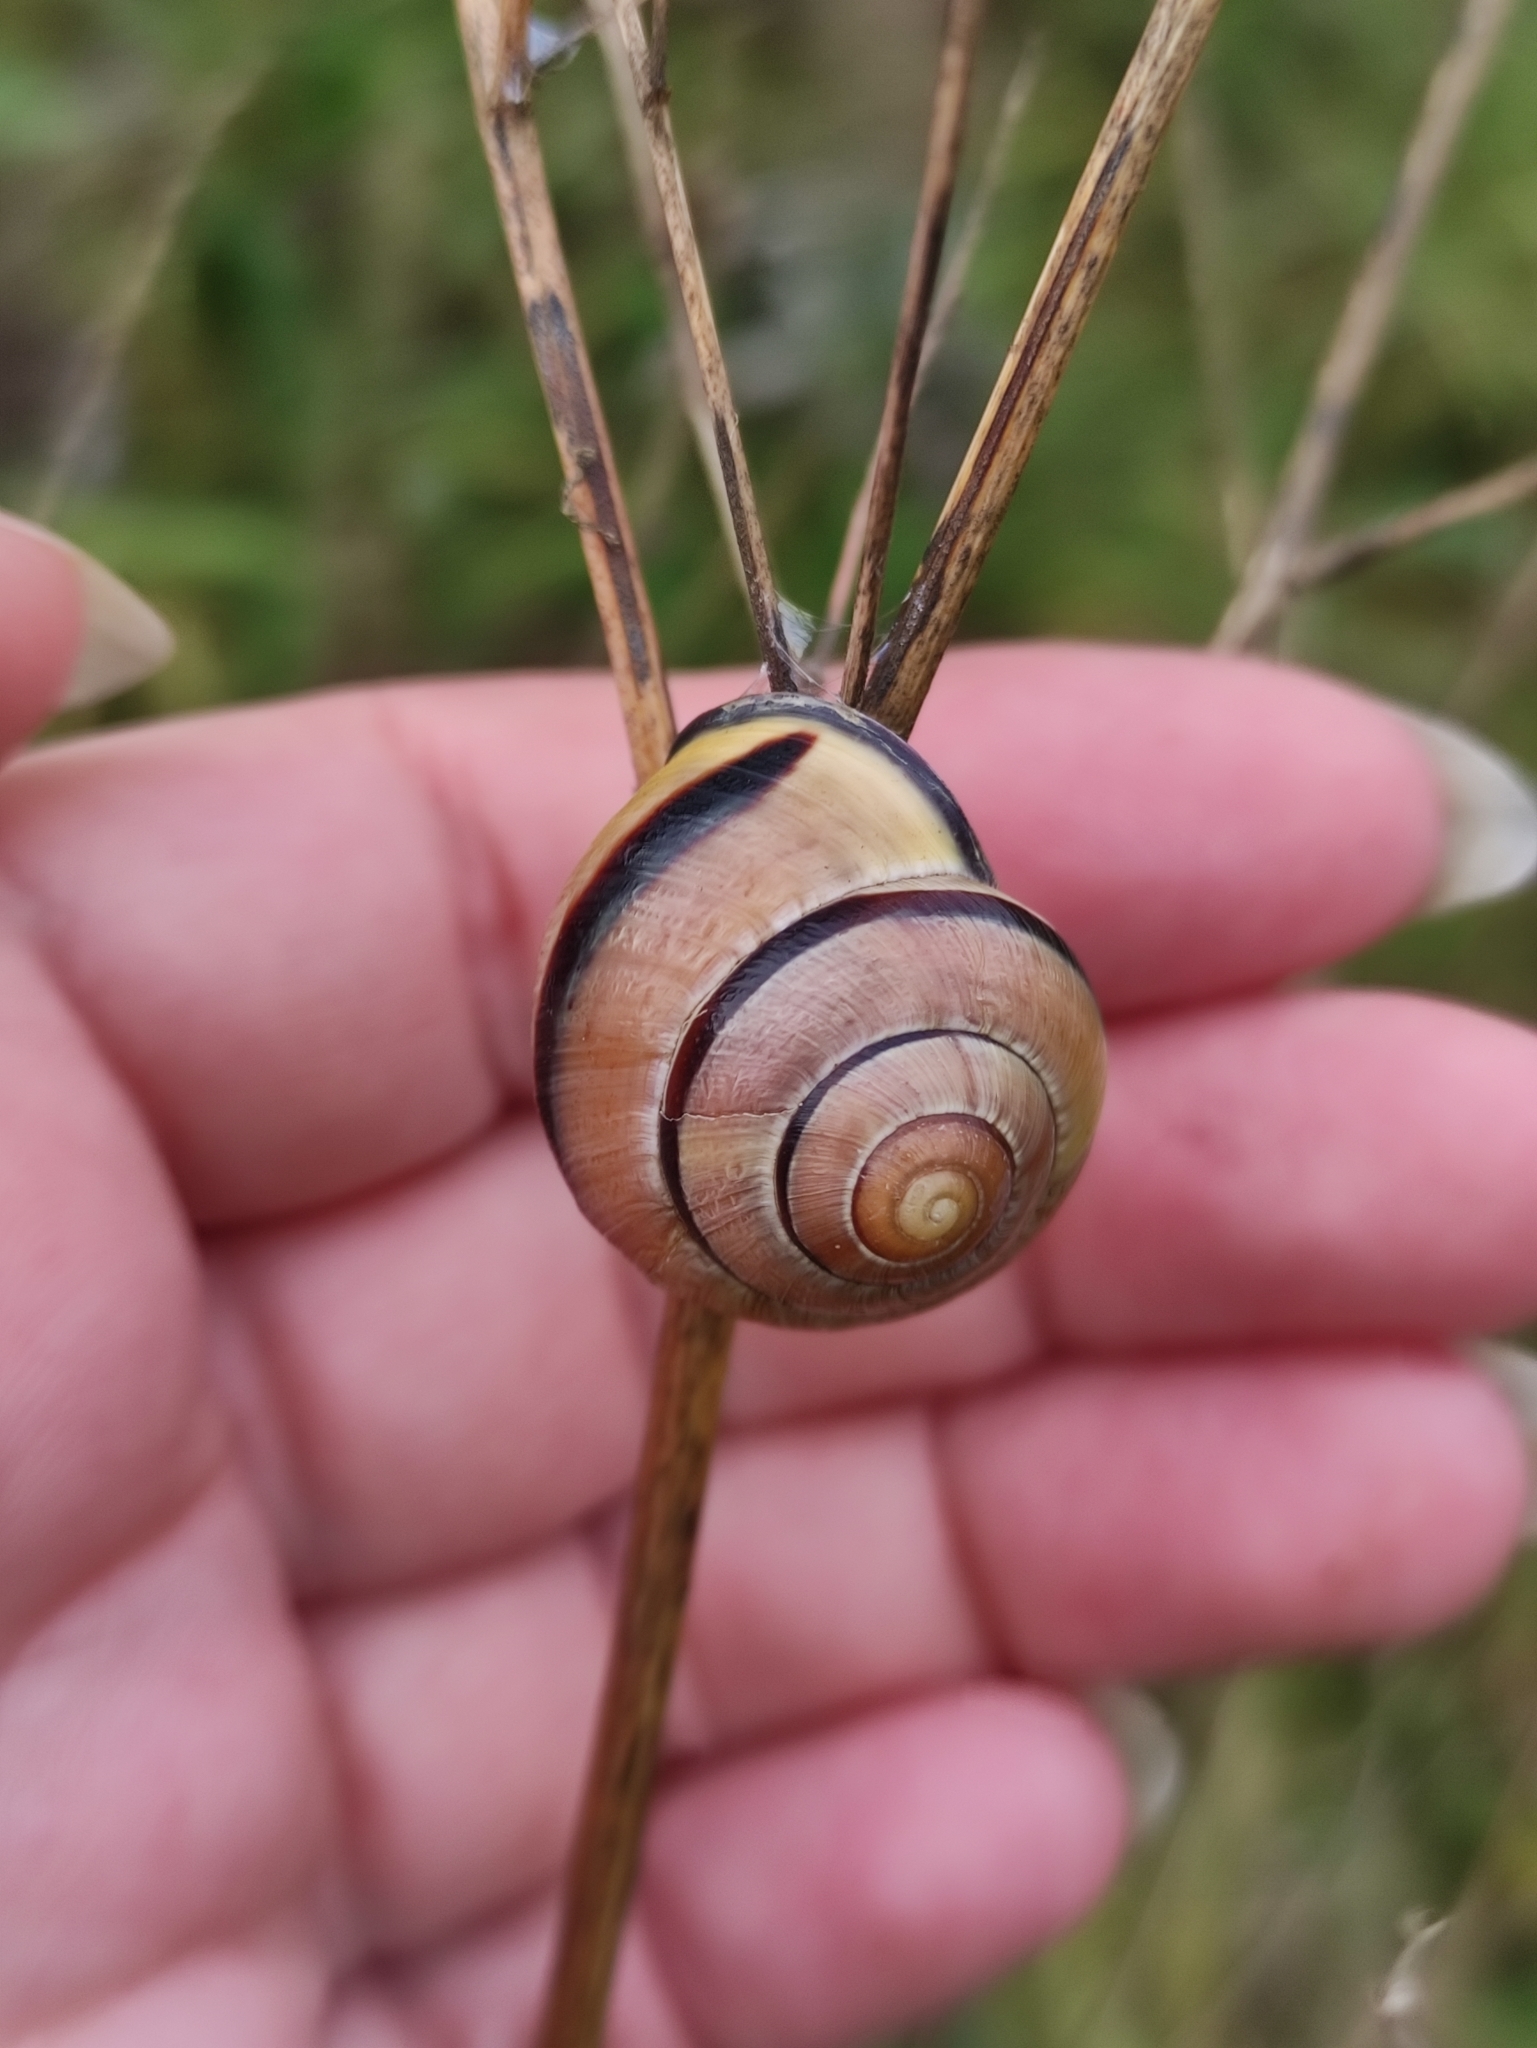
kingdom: Animalia
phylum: Mollusca
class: Gastropoda
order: Stylommatophora
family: Helicidae
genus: Cepaea
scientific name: Cepaea nemoralis
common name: Grovesnail
